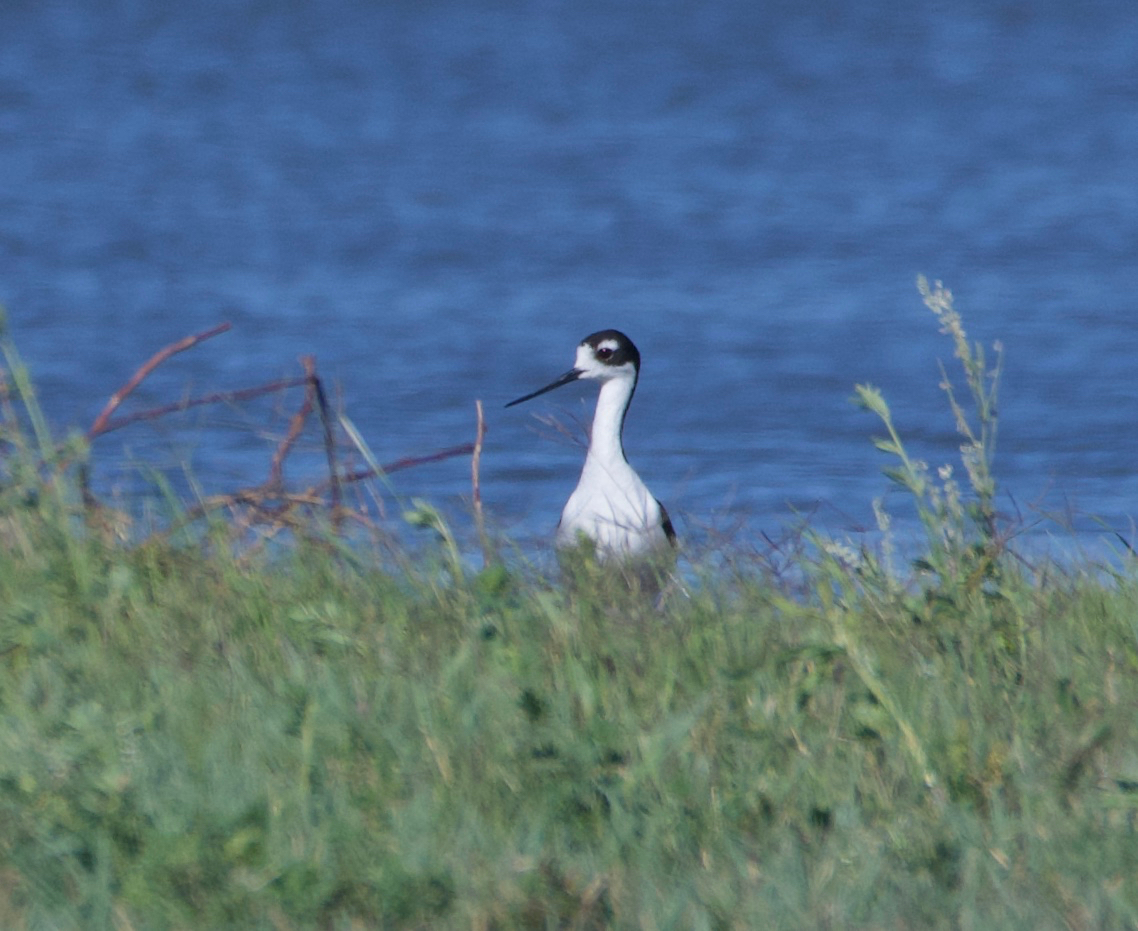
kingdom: Animalia
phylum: Chordata
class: Aves
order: Charadriiformes
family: Recurvirostridae
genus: Himantopus
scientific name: Himantopus mexicanus
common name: Black-necked stilt
